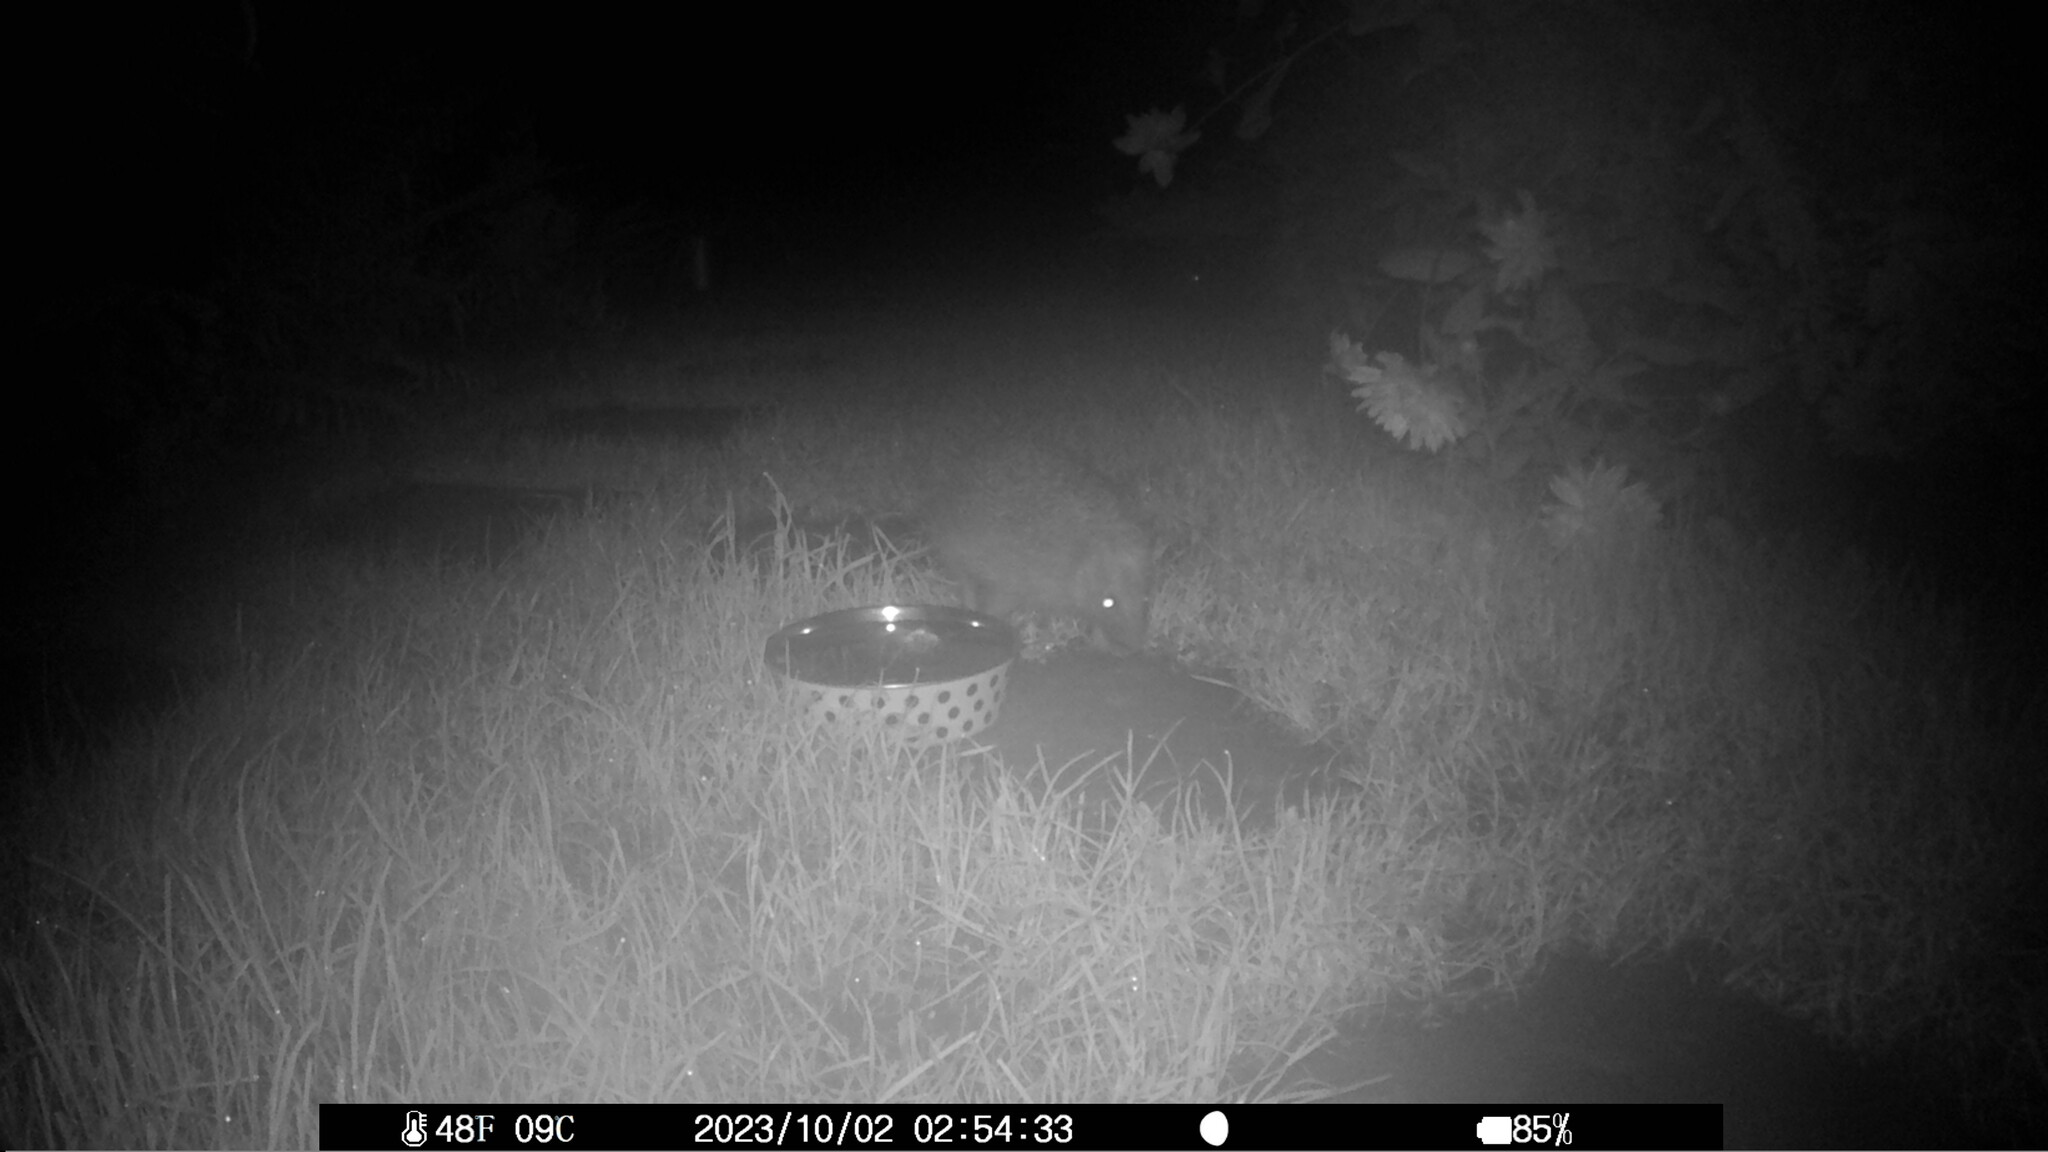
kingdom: Animalia
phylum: Chordata
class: Mammalia
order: Erinaceomorpha
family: Erinaceidae
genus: Erinaceus
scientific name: Erinaceus europaeus
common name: West european hedgehog
